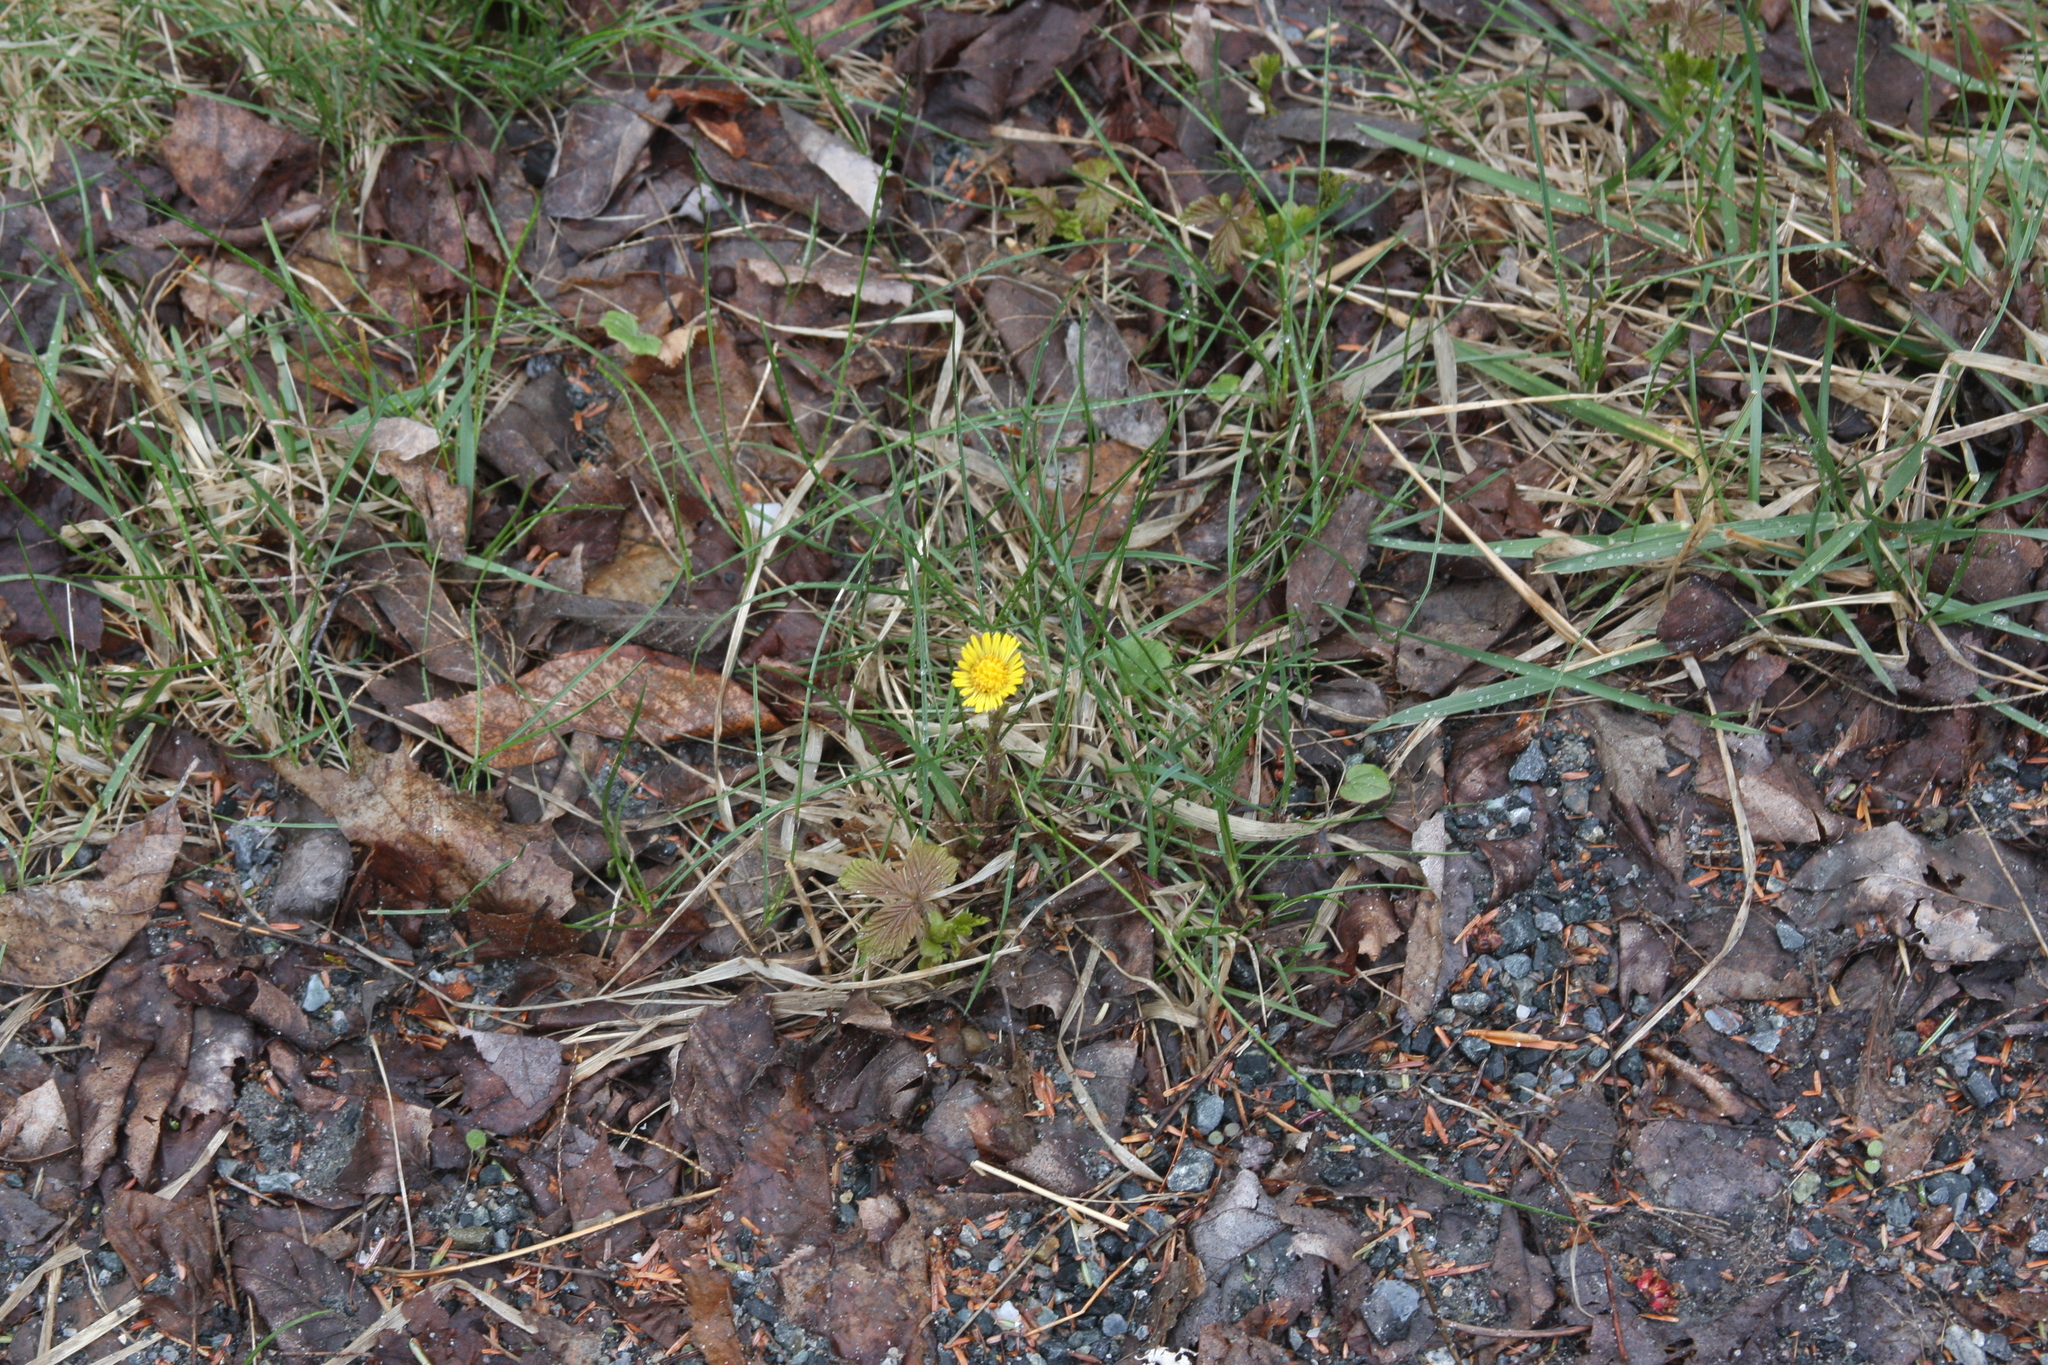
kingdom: Plantae
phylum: Tracheophyta
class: Magnoliopsida
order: Asterales
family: Asteraceae
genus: Tussilago
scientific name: Tussilago farfara
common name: Coltsfoot
